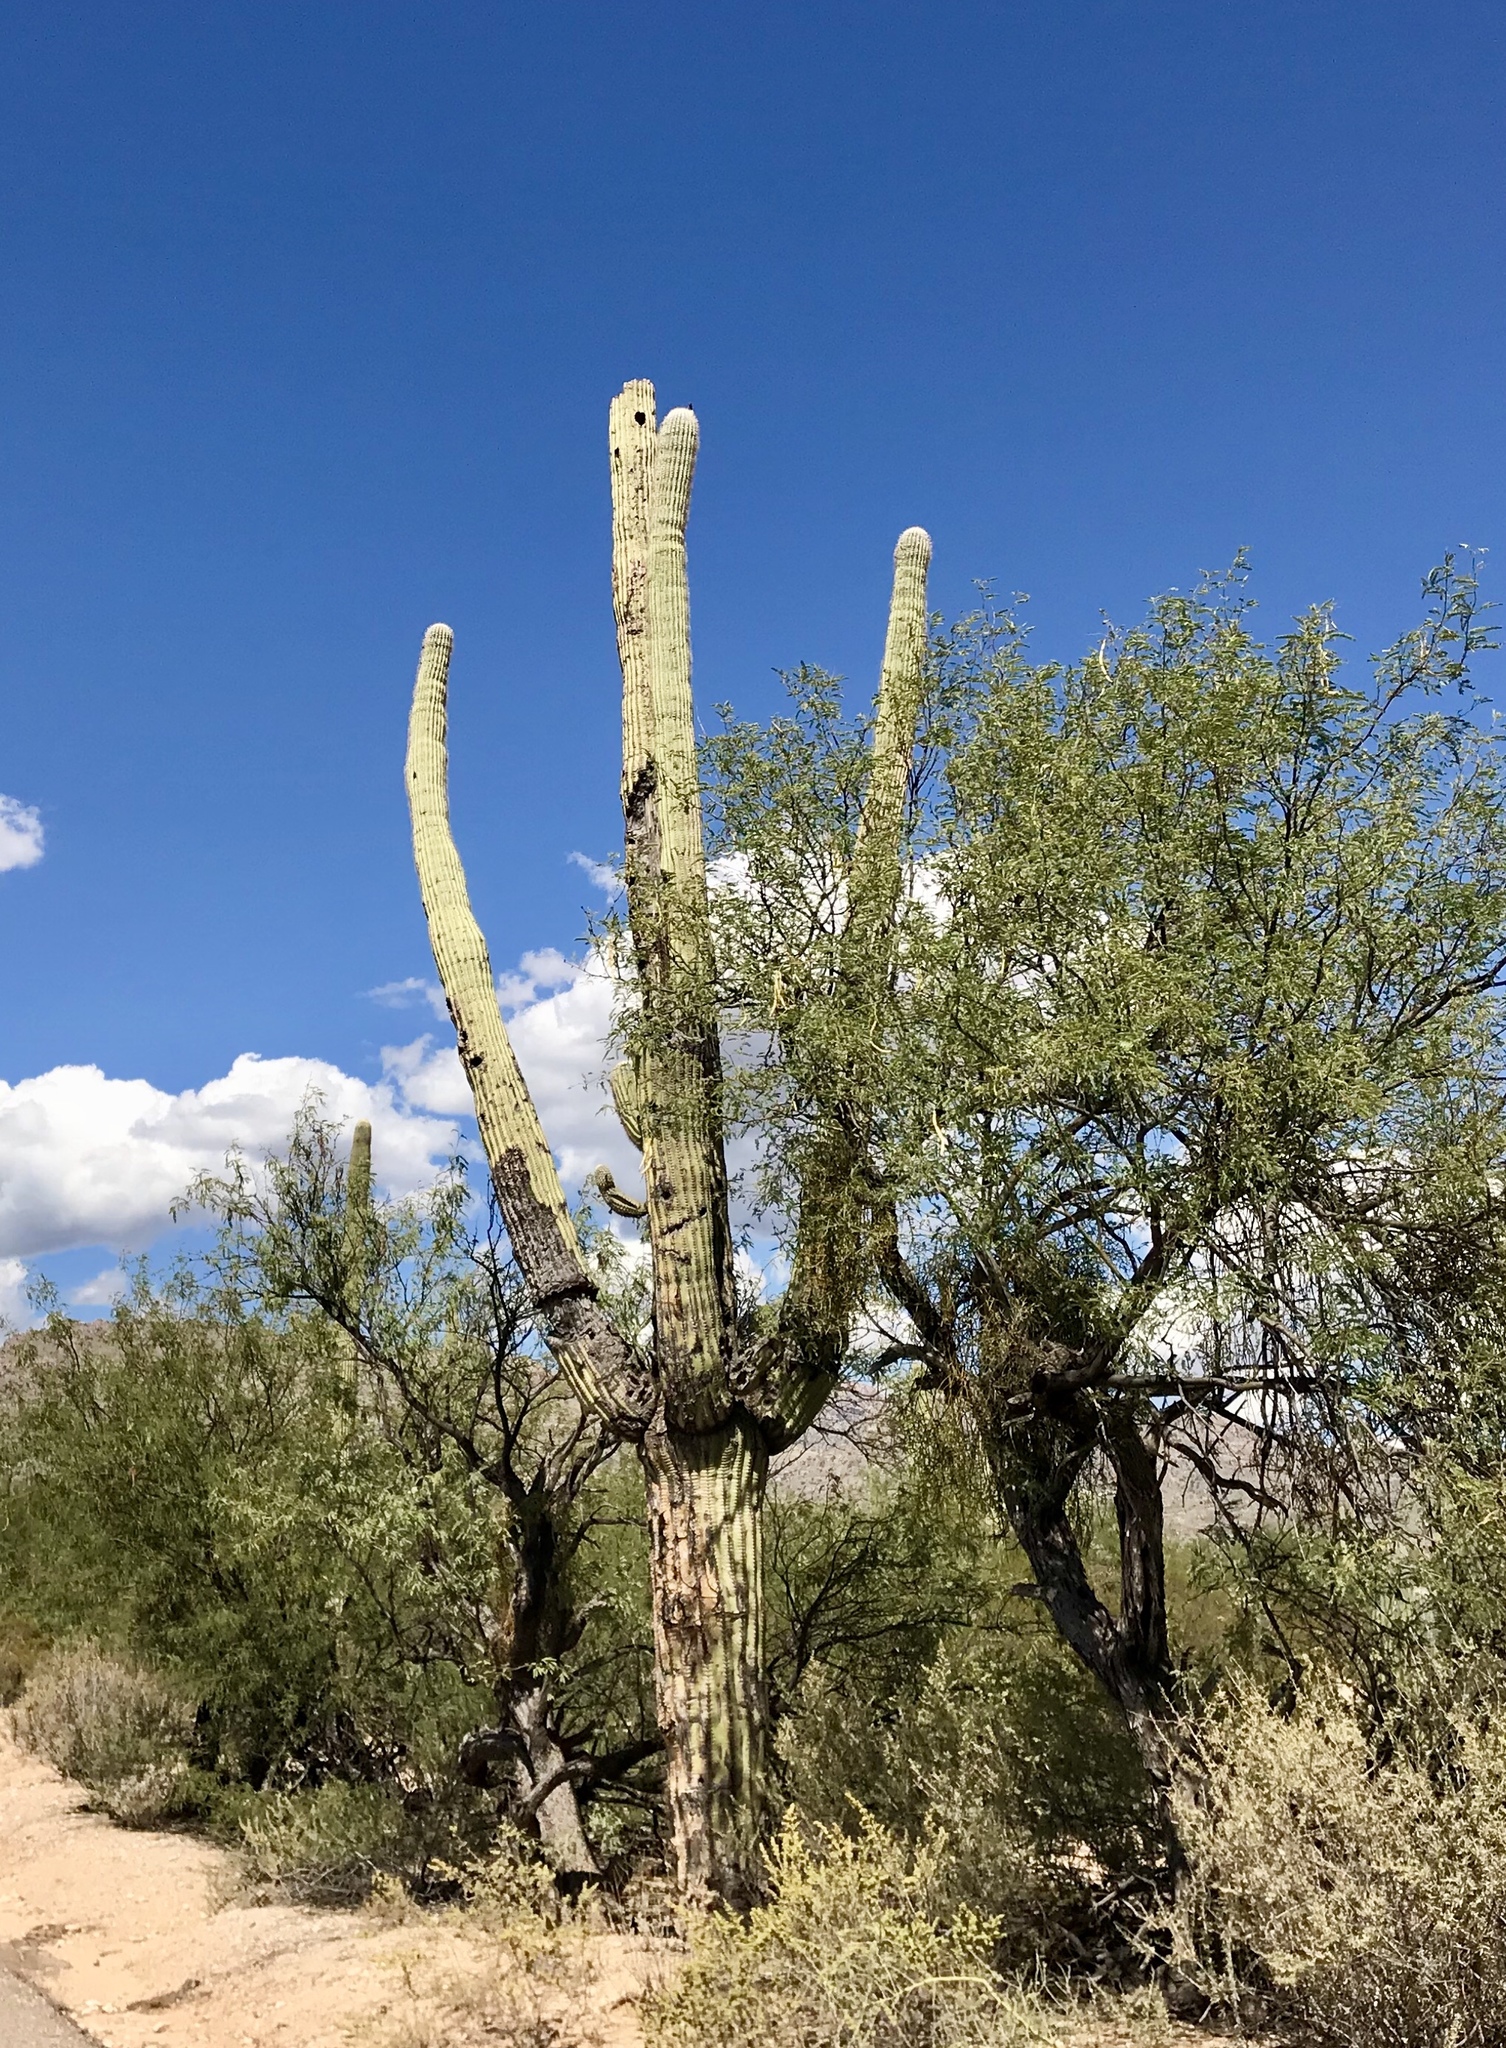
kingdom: Plantae
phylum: Tracheophyta
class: Magnoliopsida
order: Caryophyllales
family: Cactaceae
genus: Carnegiea
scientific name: Carnegiea gigantea
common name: Saguaro
